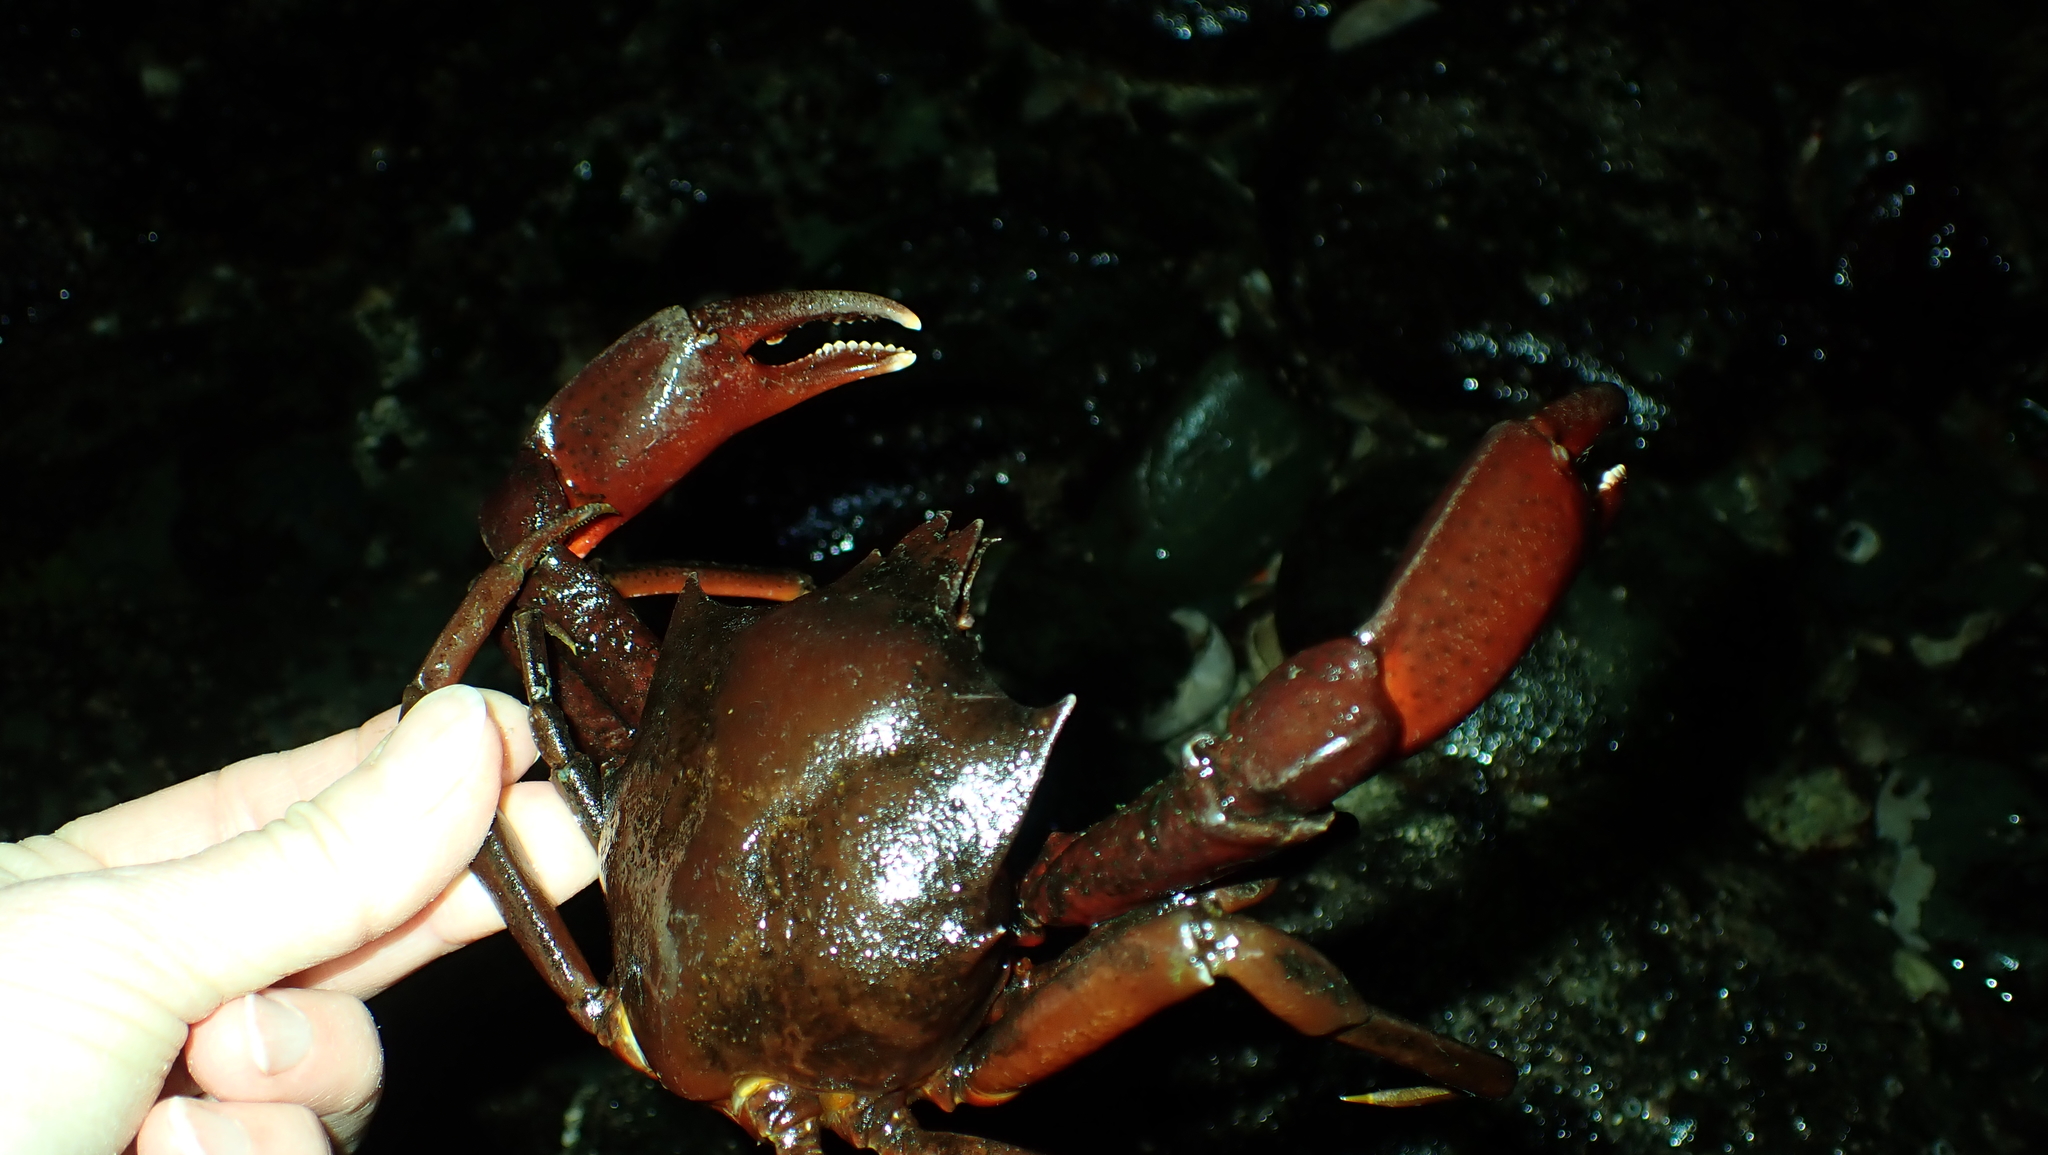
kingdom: Animalia
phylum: Arthropoda
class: Malacostraca
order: Decapoda
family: Epialtidae
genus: Pugettia
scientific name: Pugettia producta
